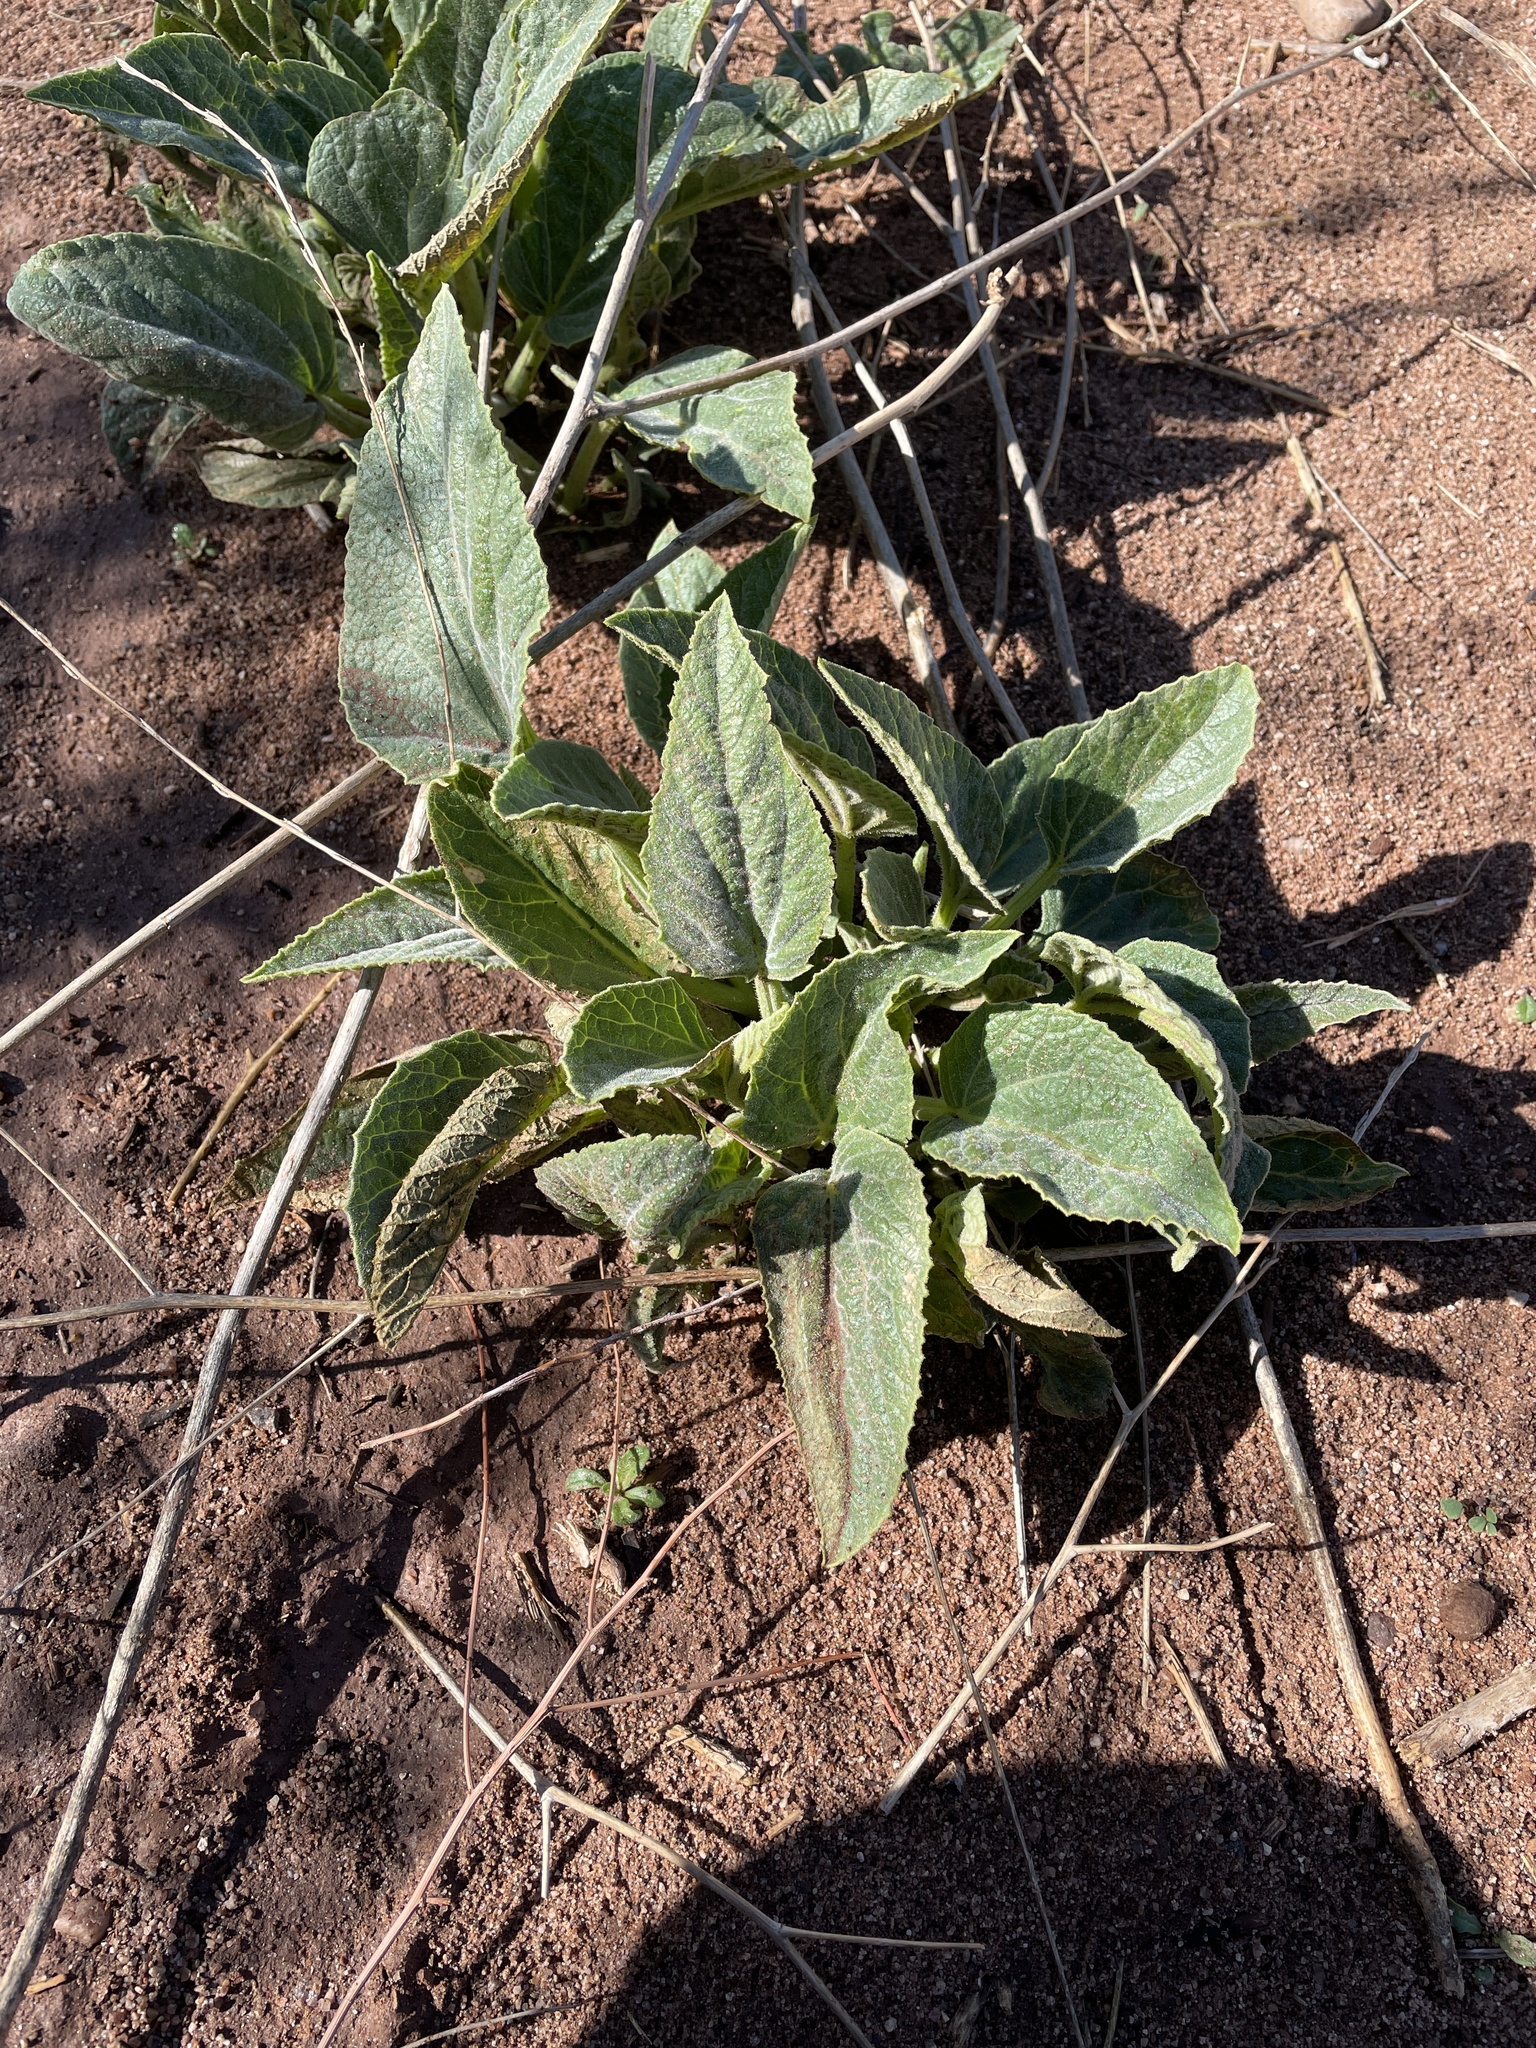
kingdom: Plantae
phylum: Tracheophyta
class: Magnoliopsida
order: Cucurbitales
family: Cucurbitaceae
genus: Cucurbita
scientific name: Cucurbita foetidissima
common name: Buffalo gourd
